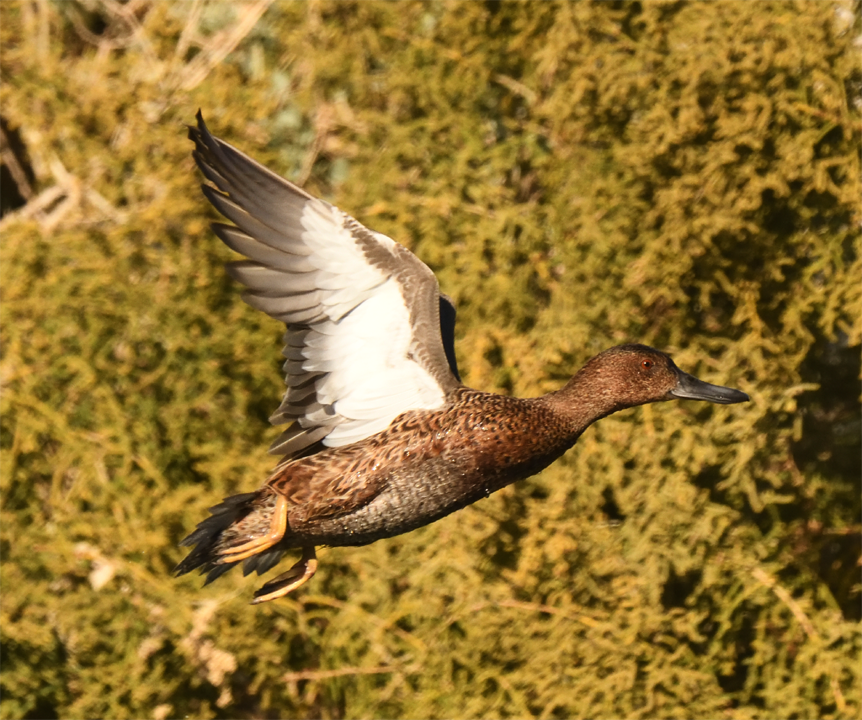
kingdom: Animalia
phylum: Chordata
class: Aves
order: Anseriformes
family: Anatidae
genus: Spatula
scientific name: Spatula cyanoptera
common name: Cinnamon teal
